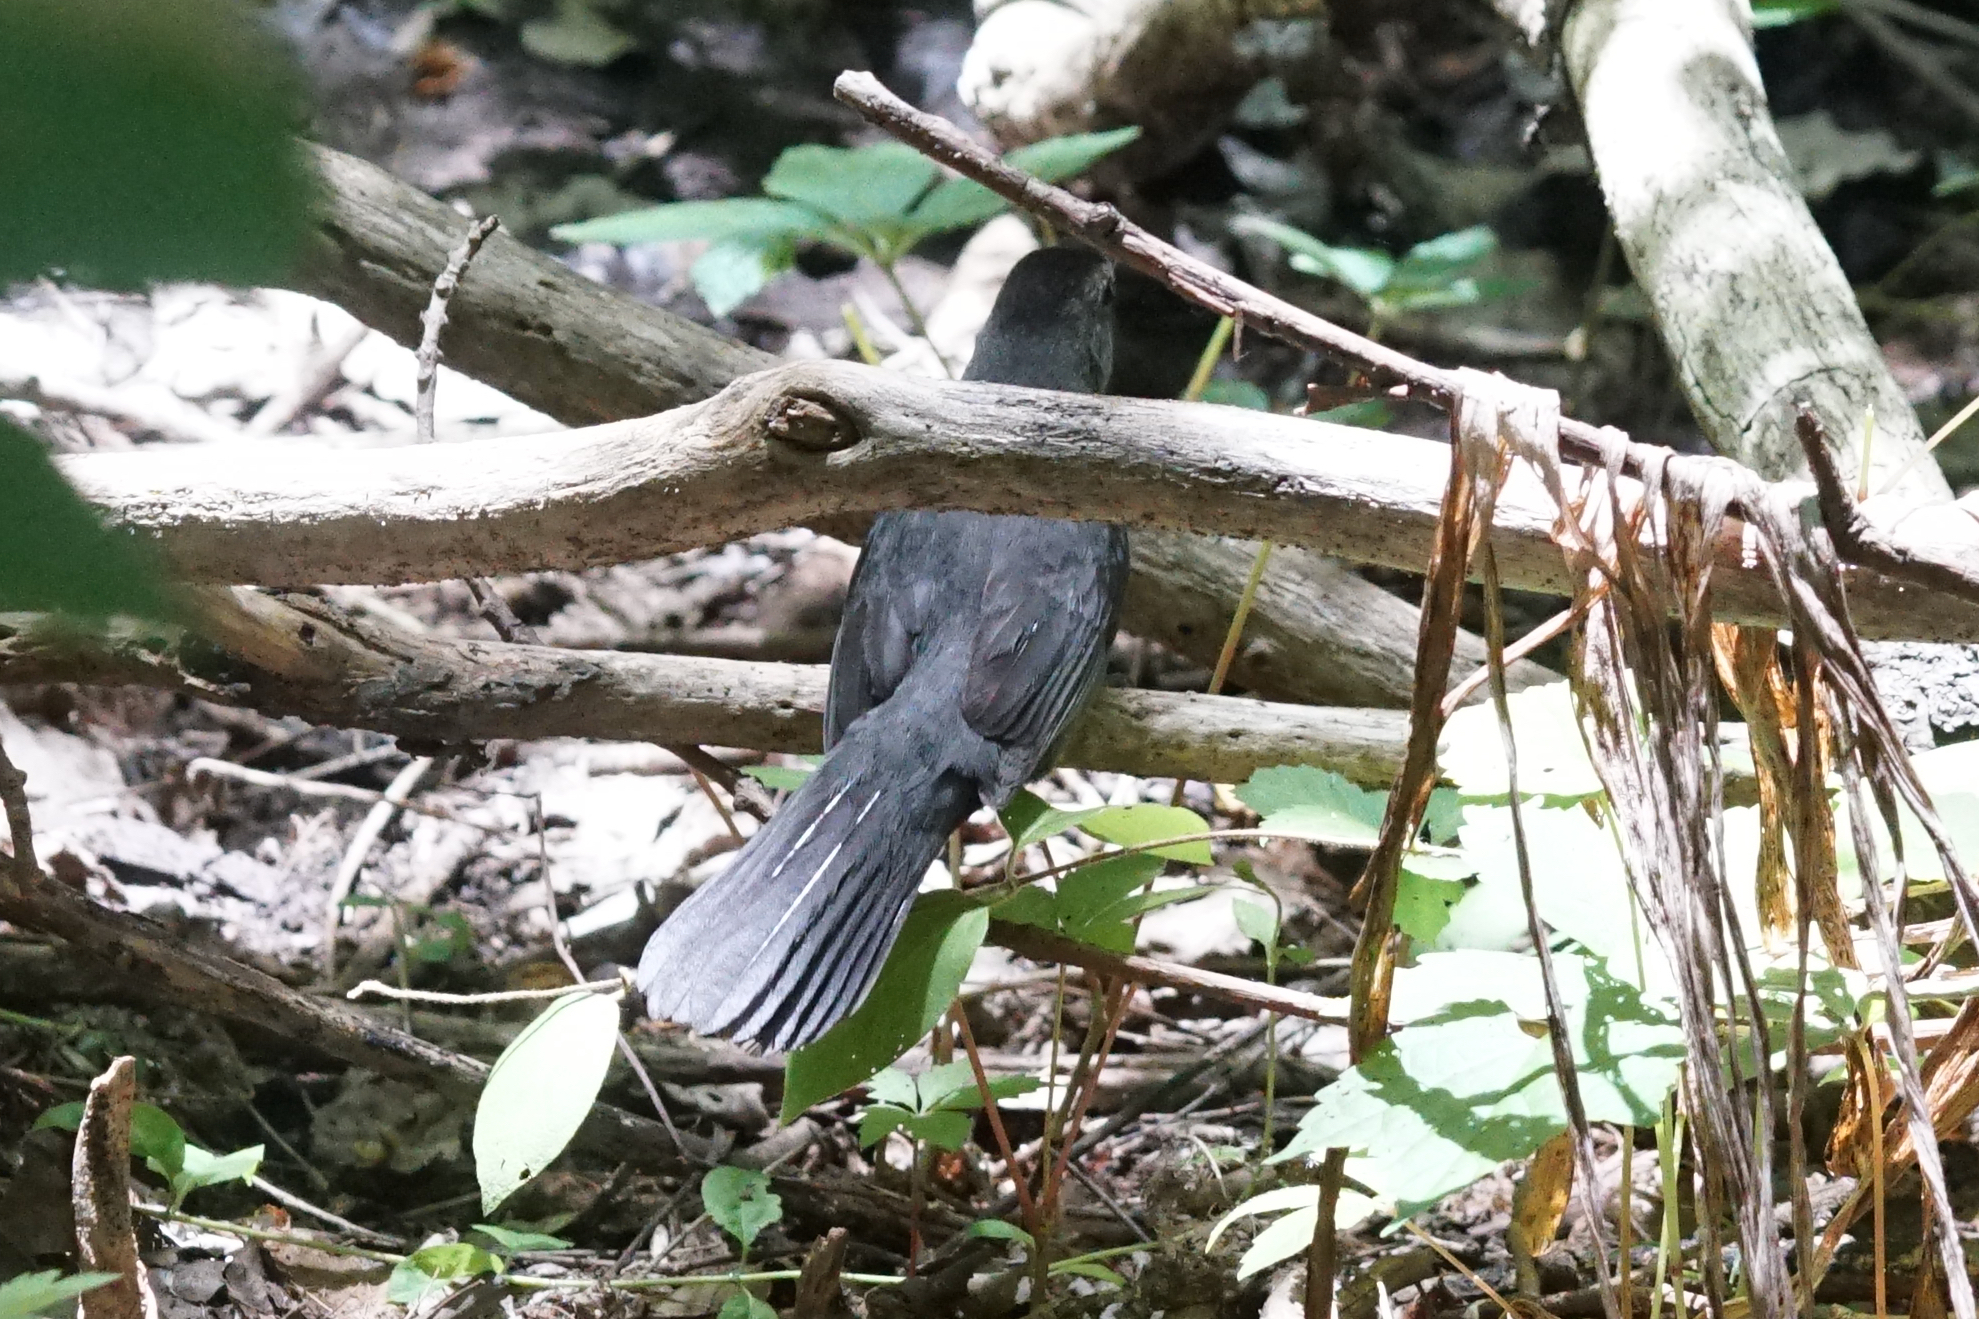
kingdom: Animalia
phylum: Chordata
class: Aves
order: Passeriformes
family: Mimidae
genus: Dumetella
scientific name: Dumetella carolinensis
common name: Gray catbird
